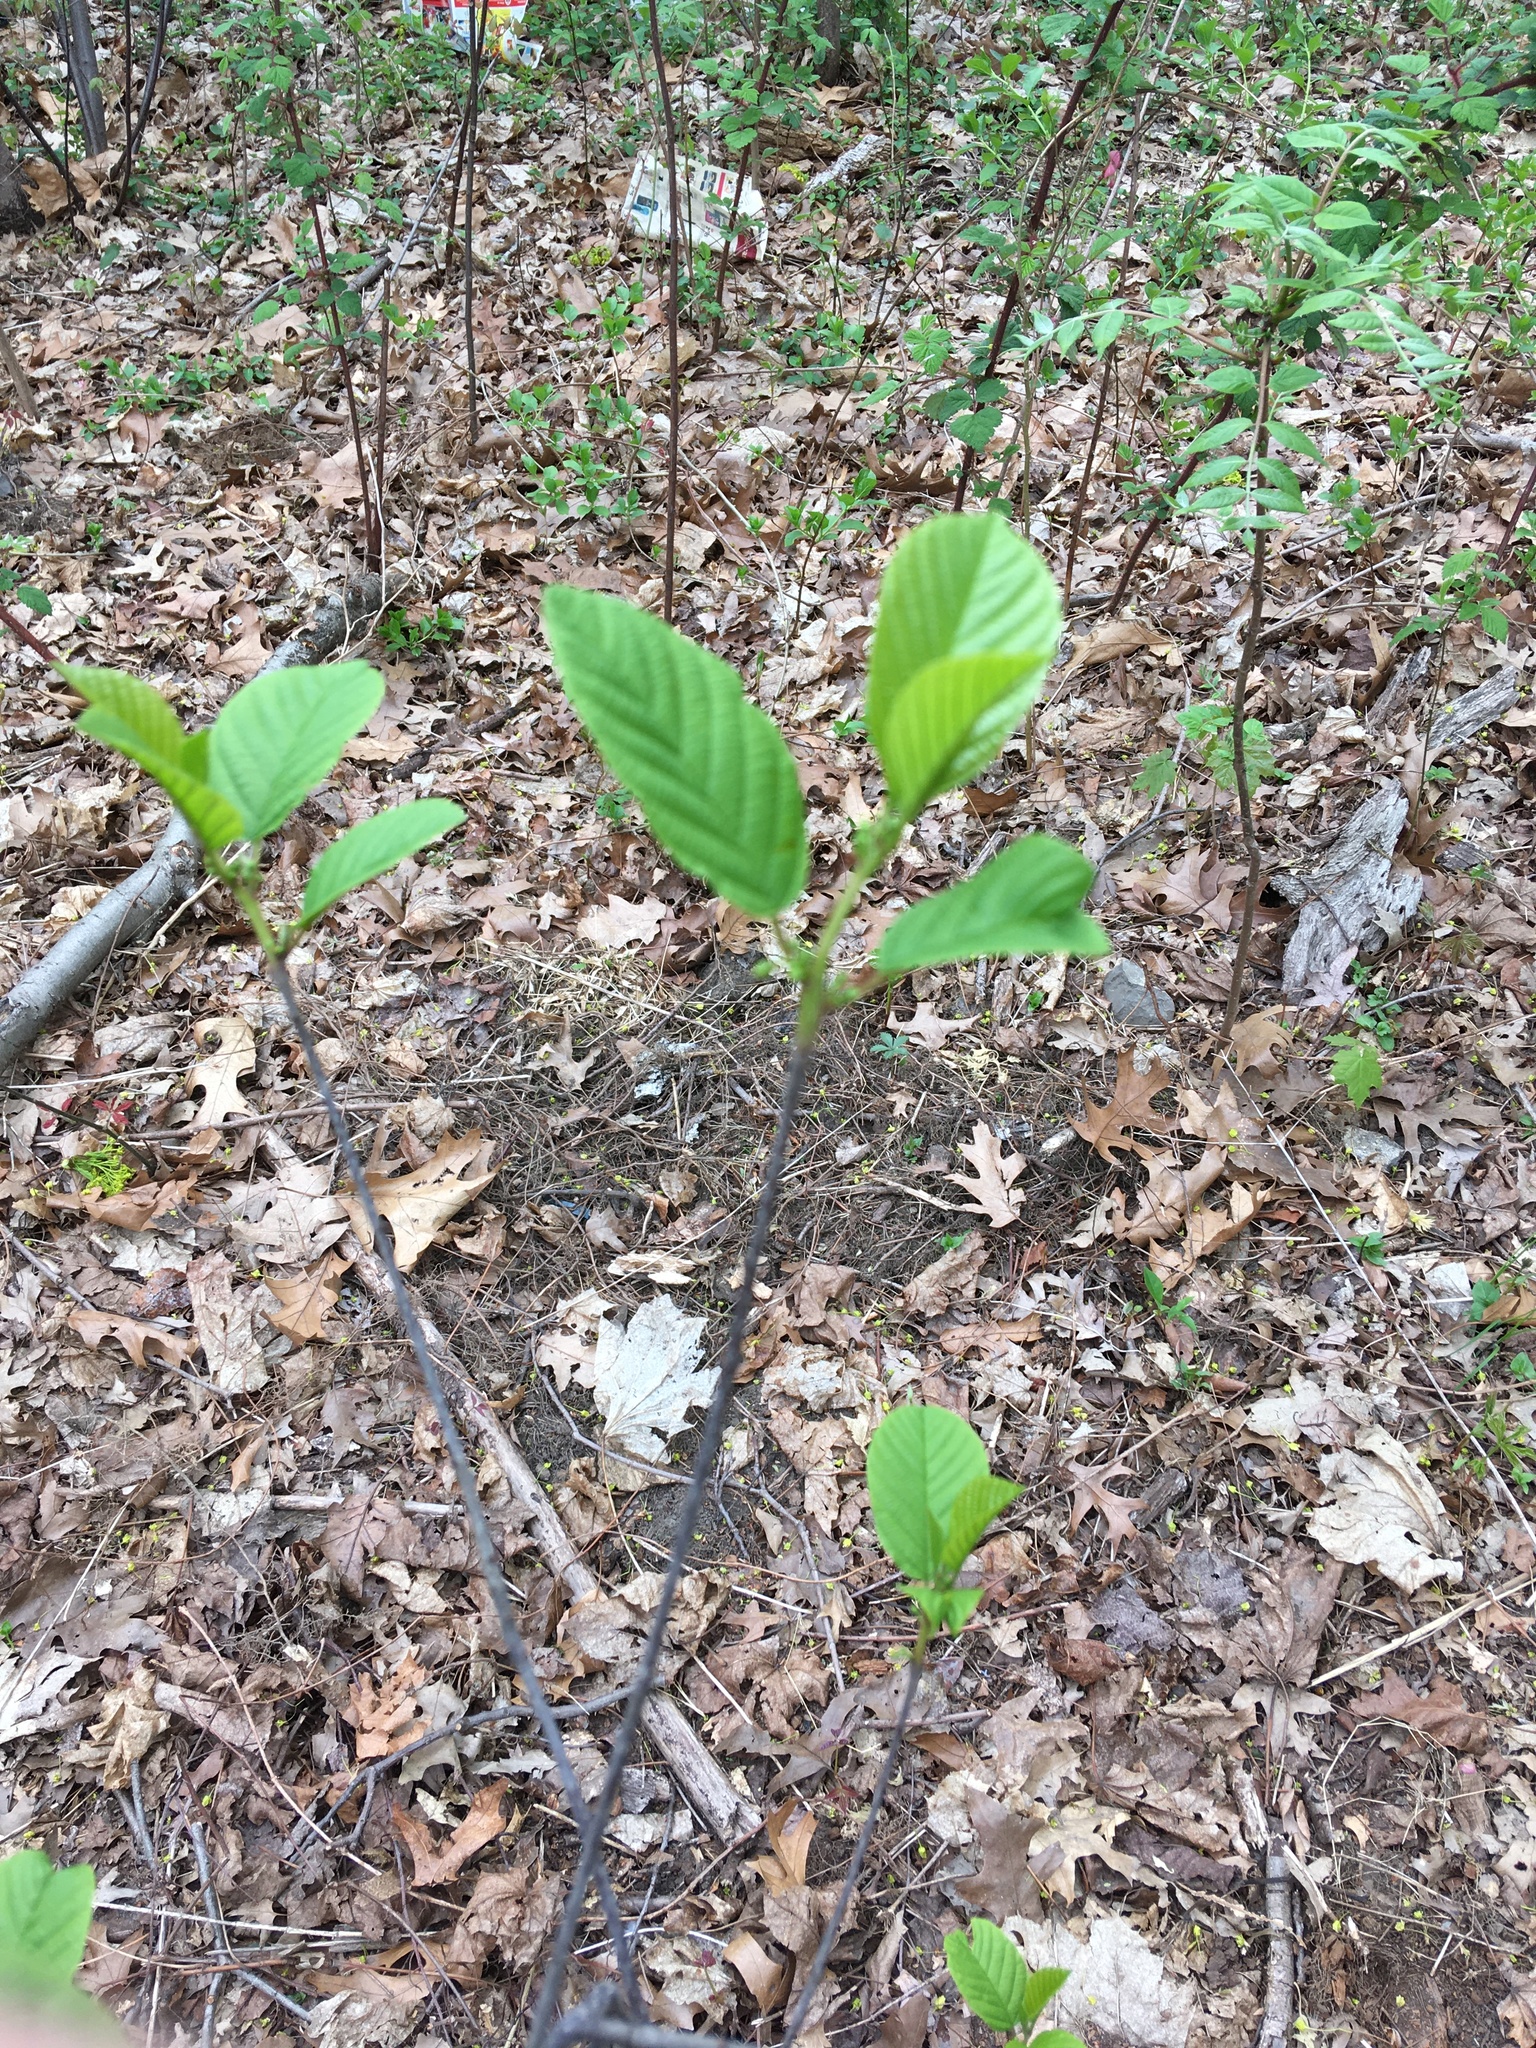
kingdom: Plantae
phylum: Tracheophyta
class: Magnoliopsida
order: Rosales
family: Rhamnaceae
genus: Frangula
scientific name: Frangula alnus
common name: Alder buckthorn
